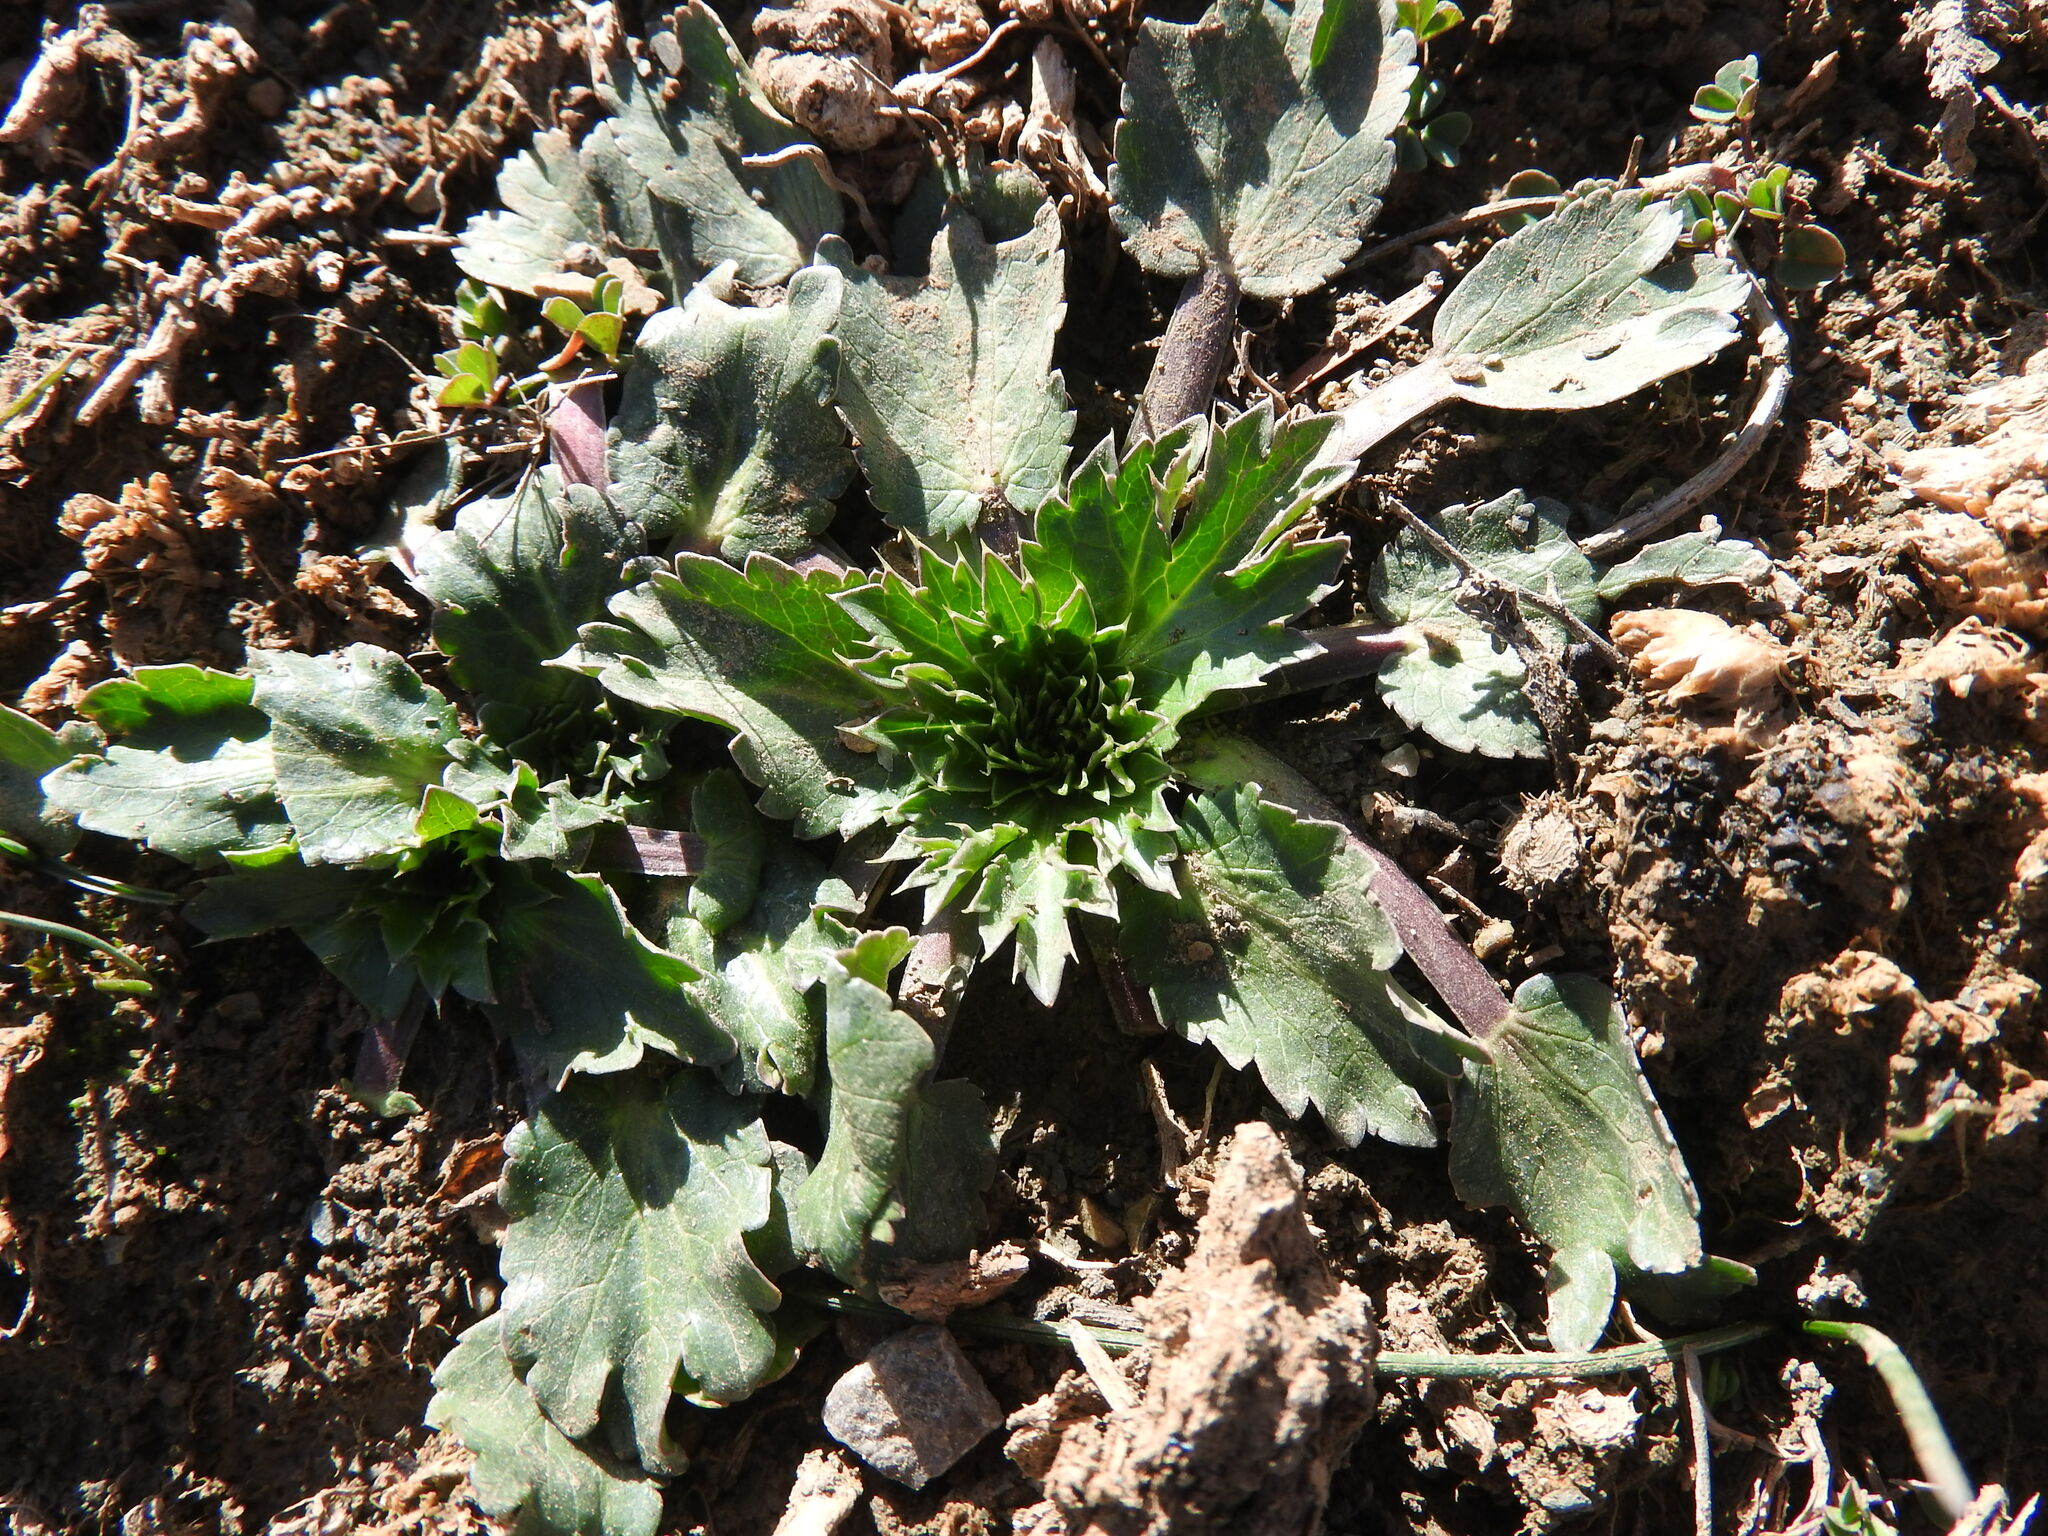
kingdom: Plantae
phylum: Tracheophyta
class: Magnoliopsida
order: Apiales
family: Apiaceae
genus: Eryngium
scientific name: Eryngium triquetrum
